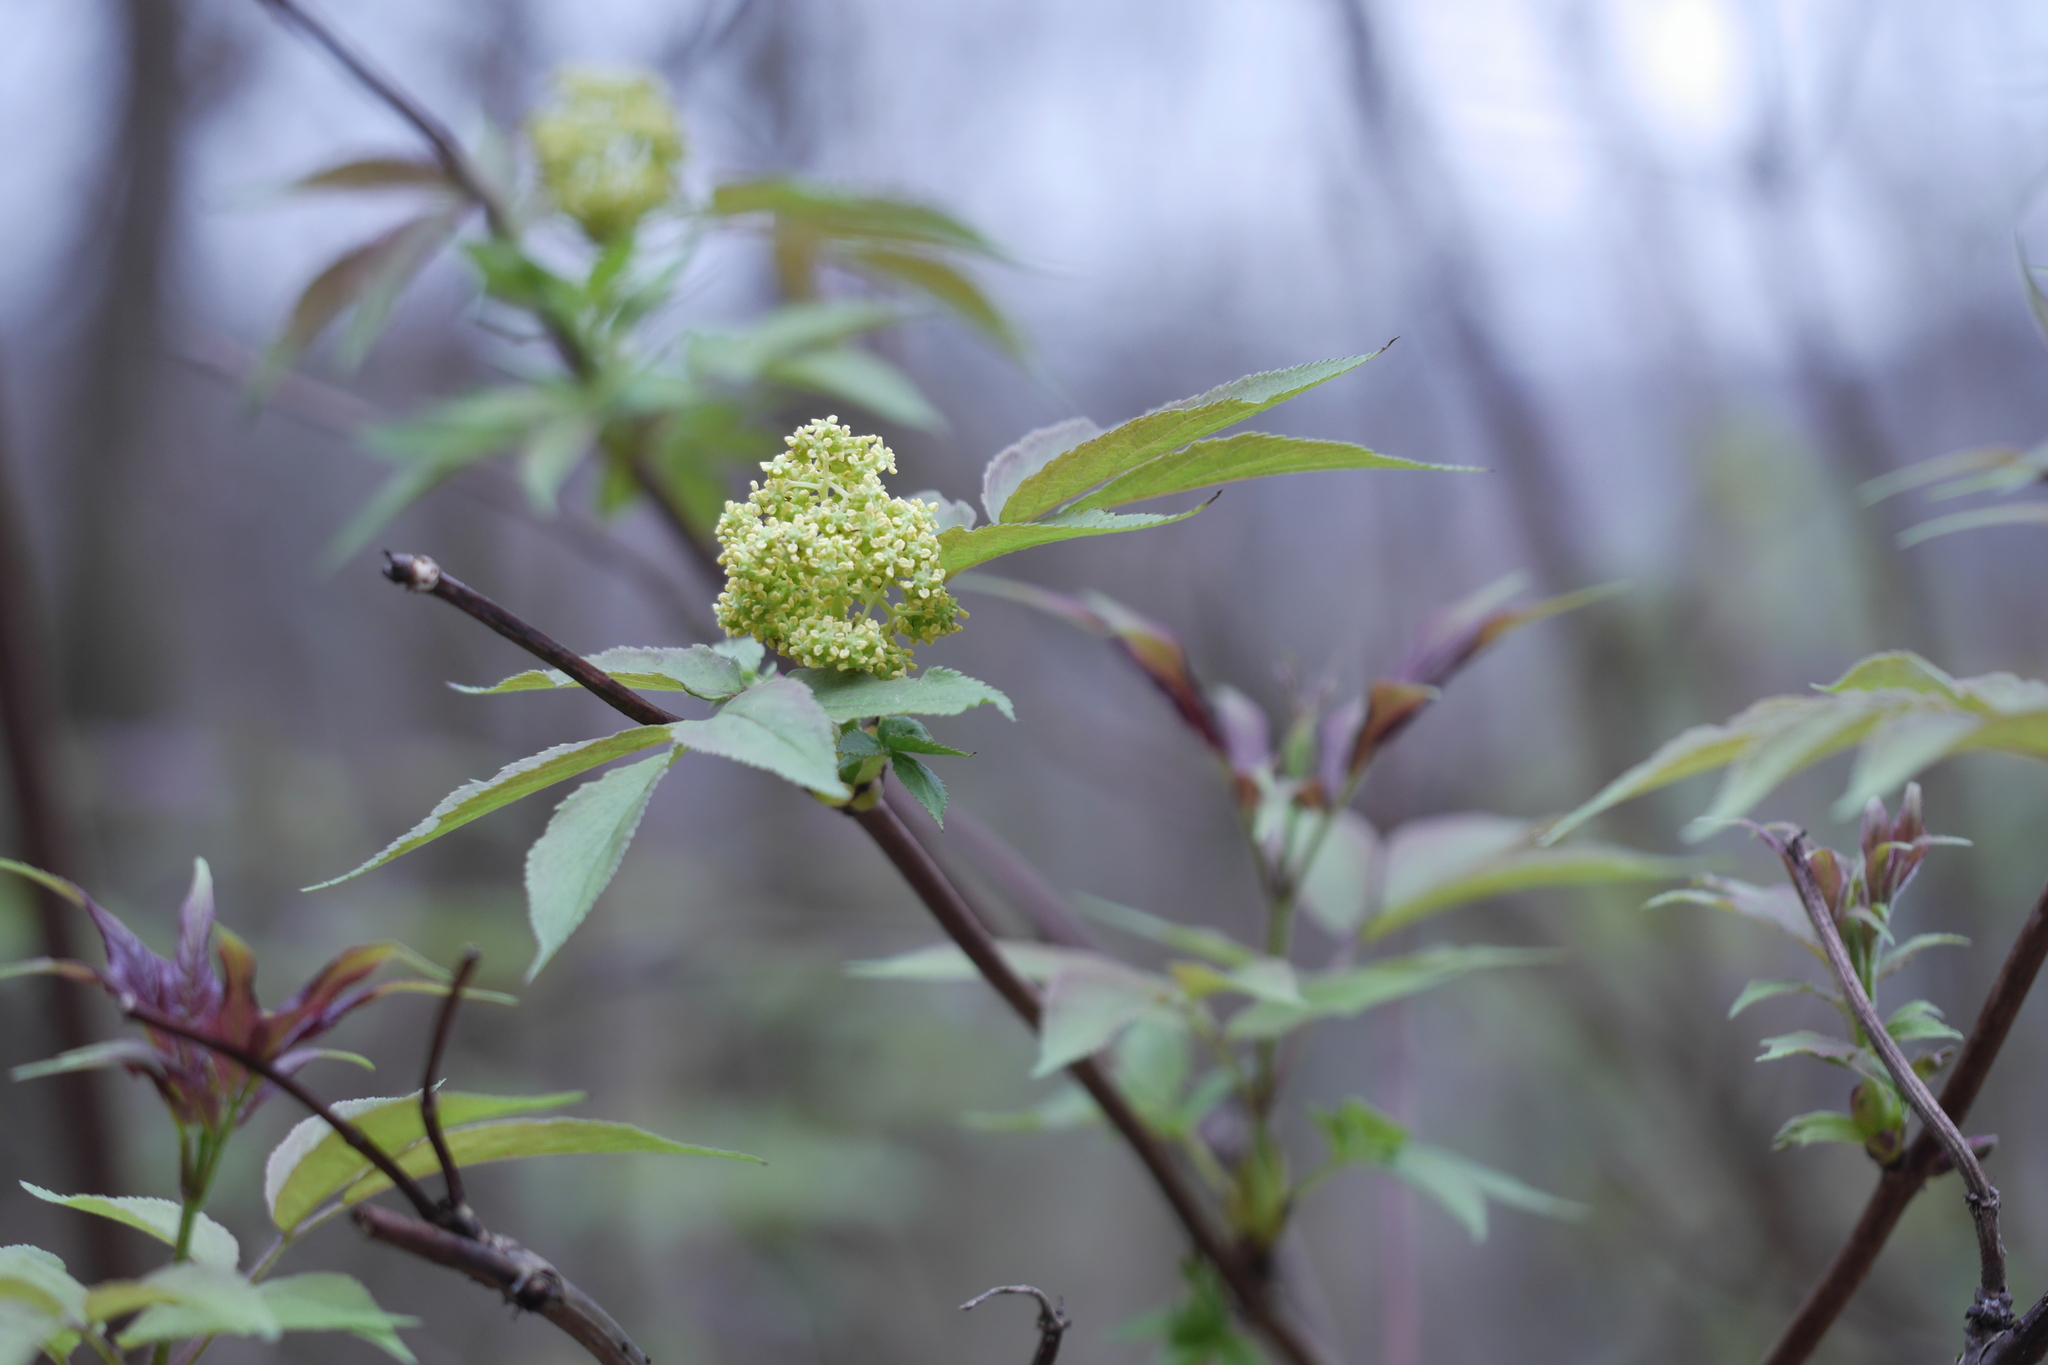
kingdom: Plantae
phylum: Tracheophyta
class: Magnoliopsida
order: Dipsacales
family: Viburnaceae
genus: Sambucus
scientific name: Sambucus racemosa
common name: Red-berried elder
